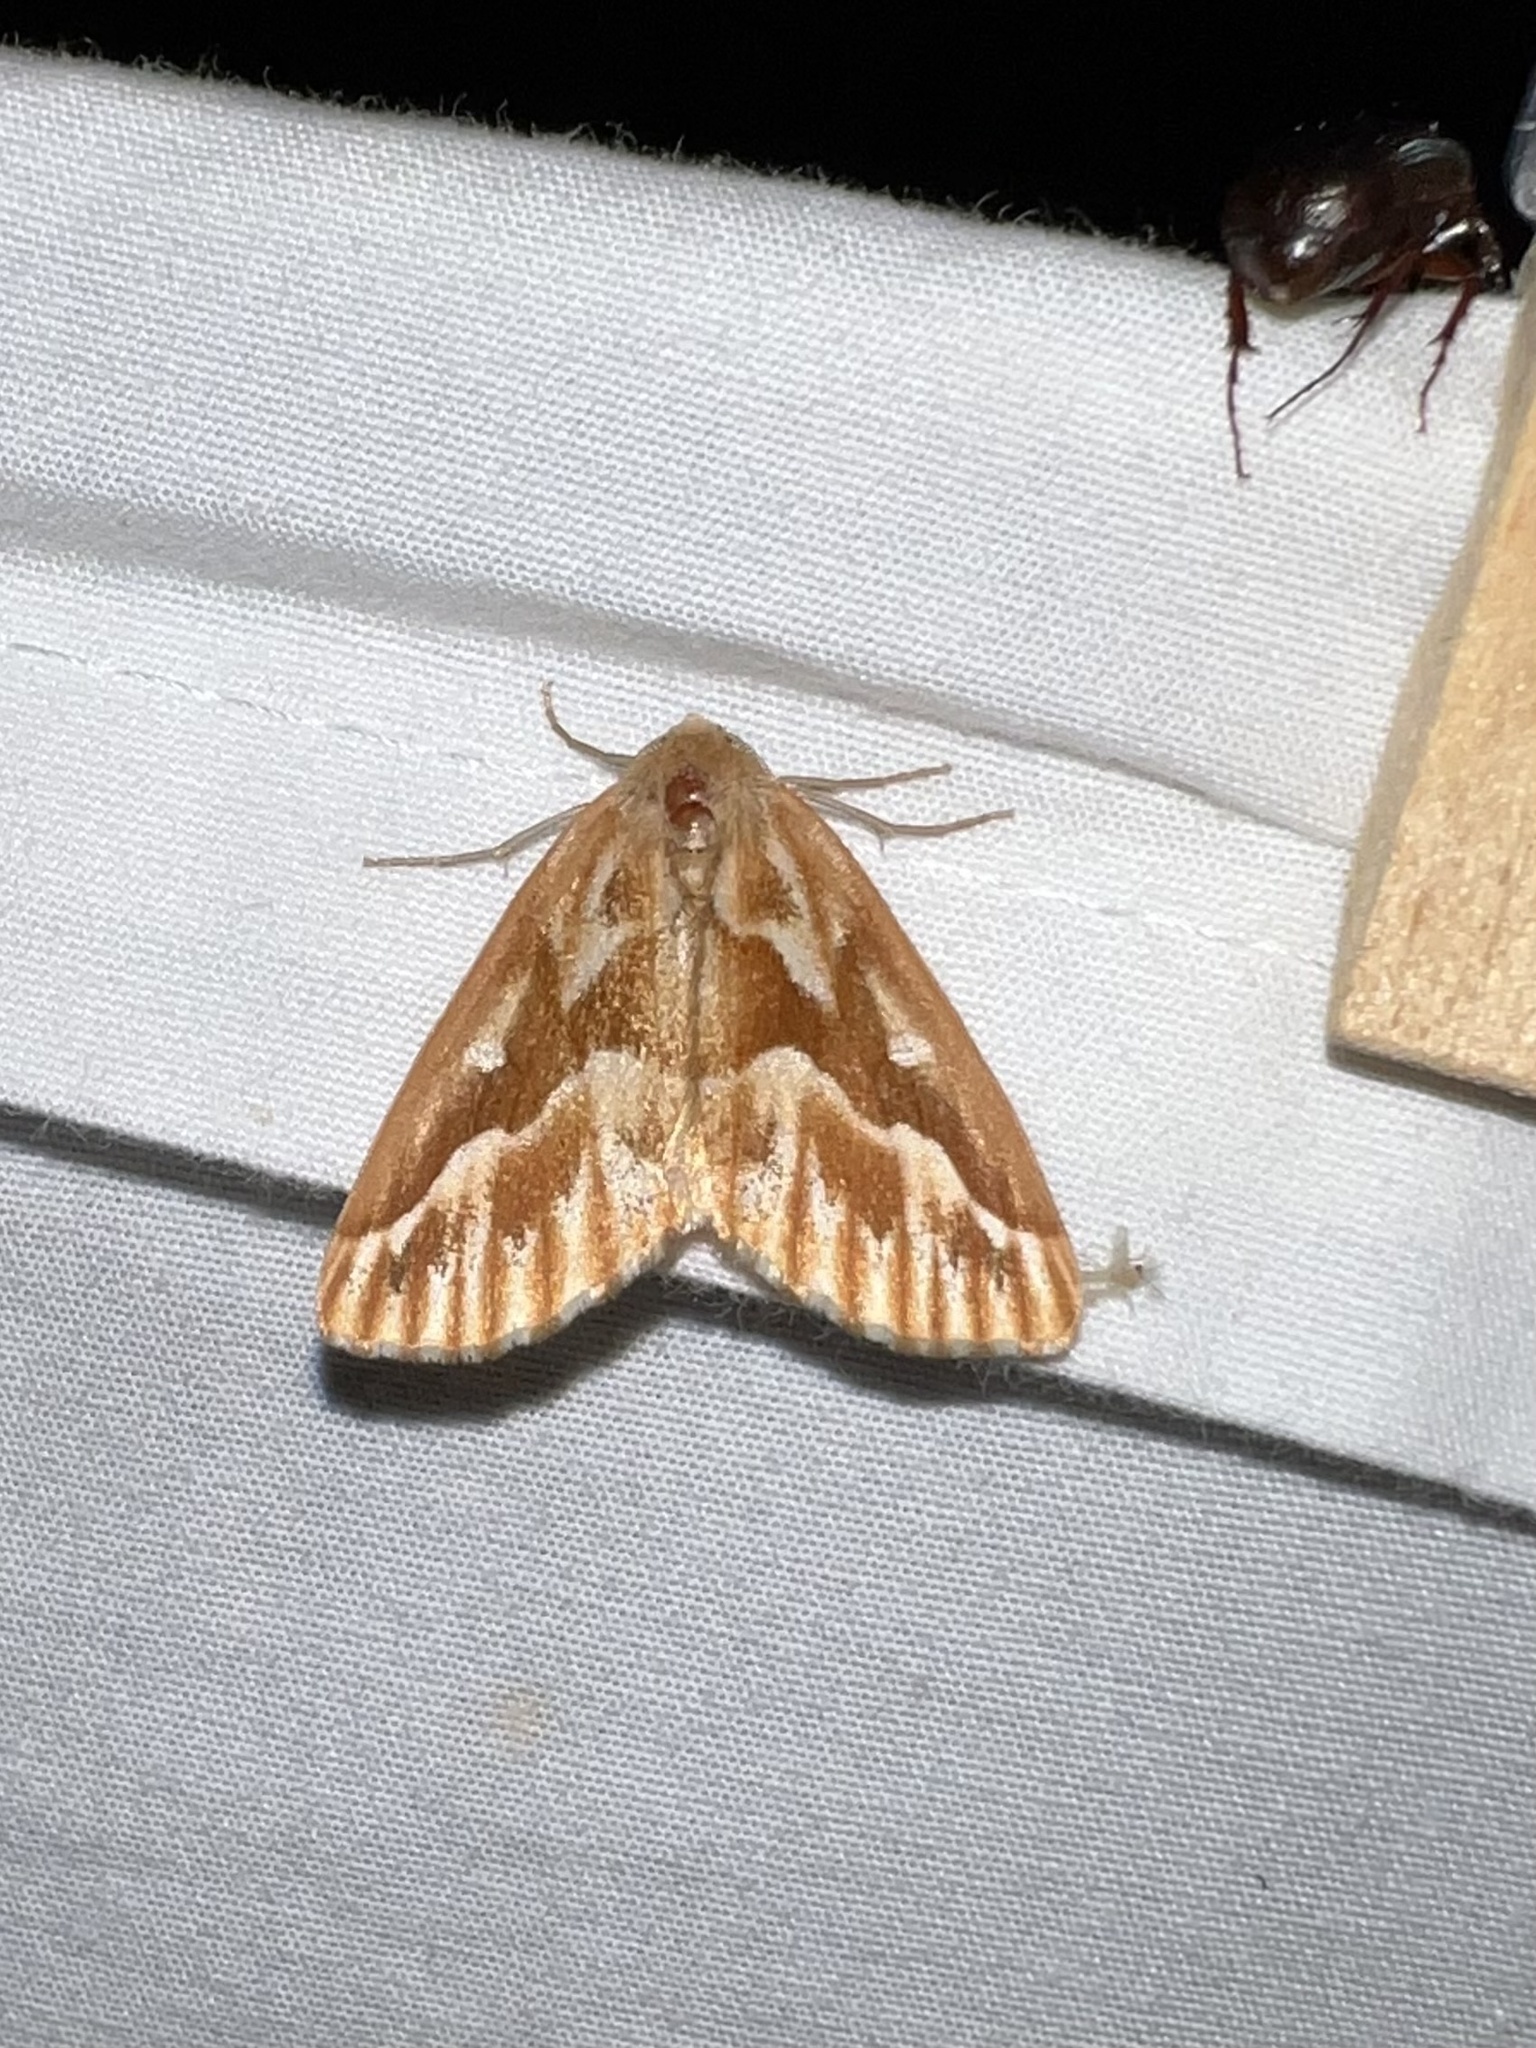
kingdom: Animalia
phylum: Arthropoda
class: Insecta
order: Lepidoptera
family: Geometridae
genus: Caripeta
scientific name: Caripeta piniata
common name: Northern pine looper moth
